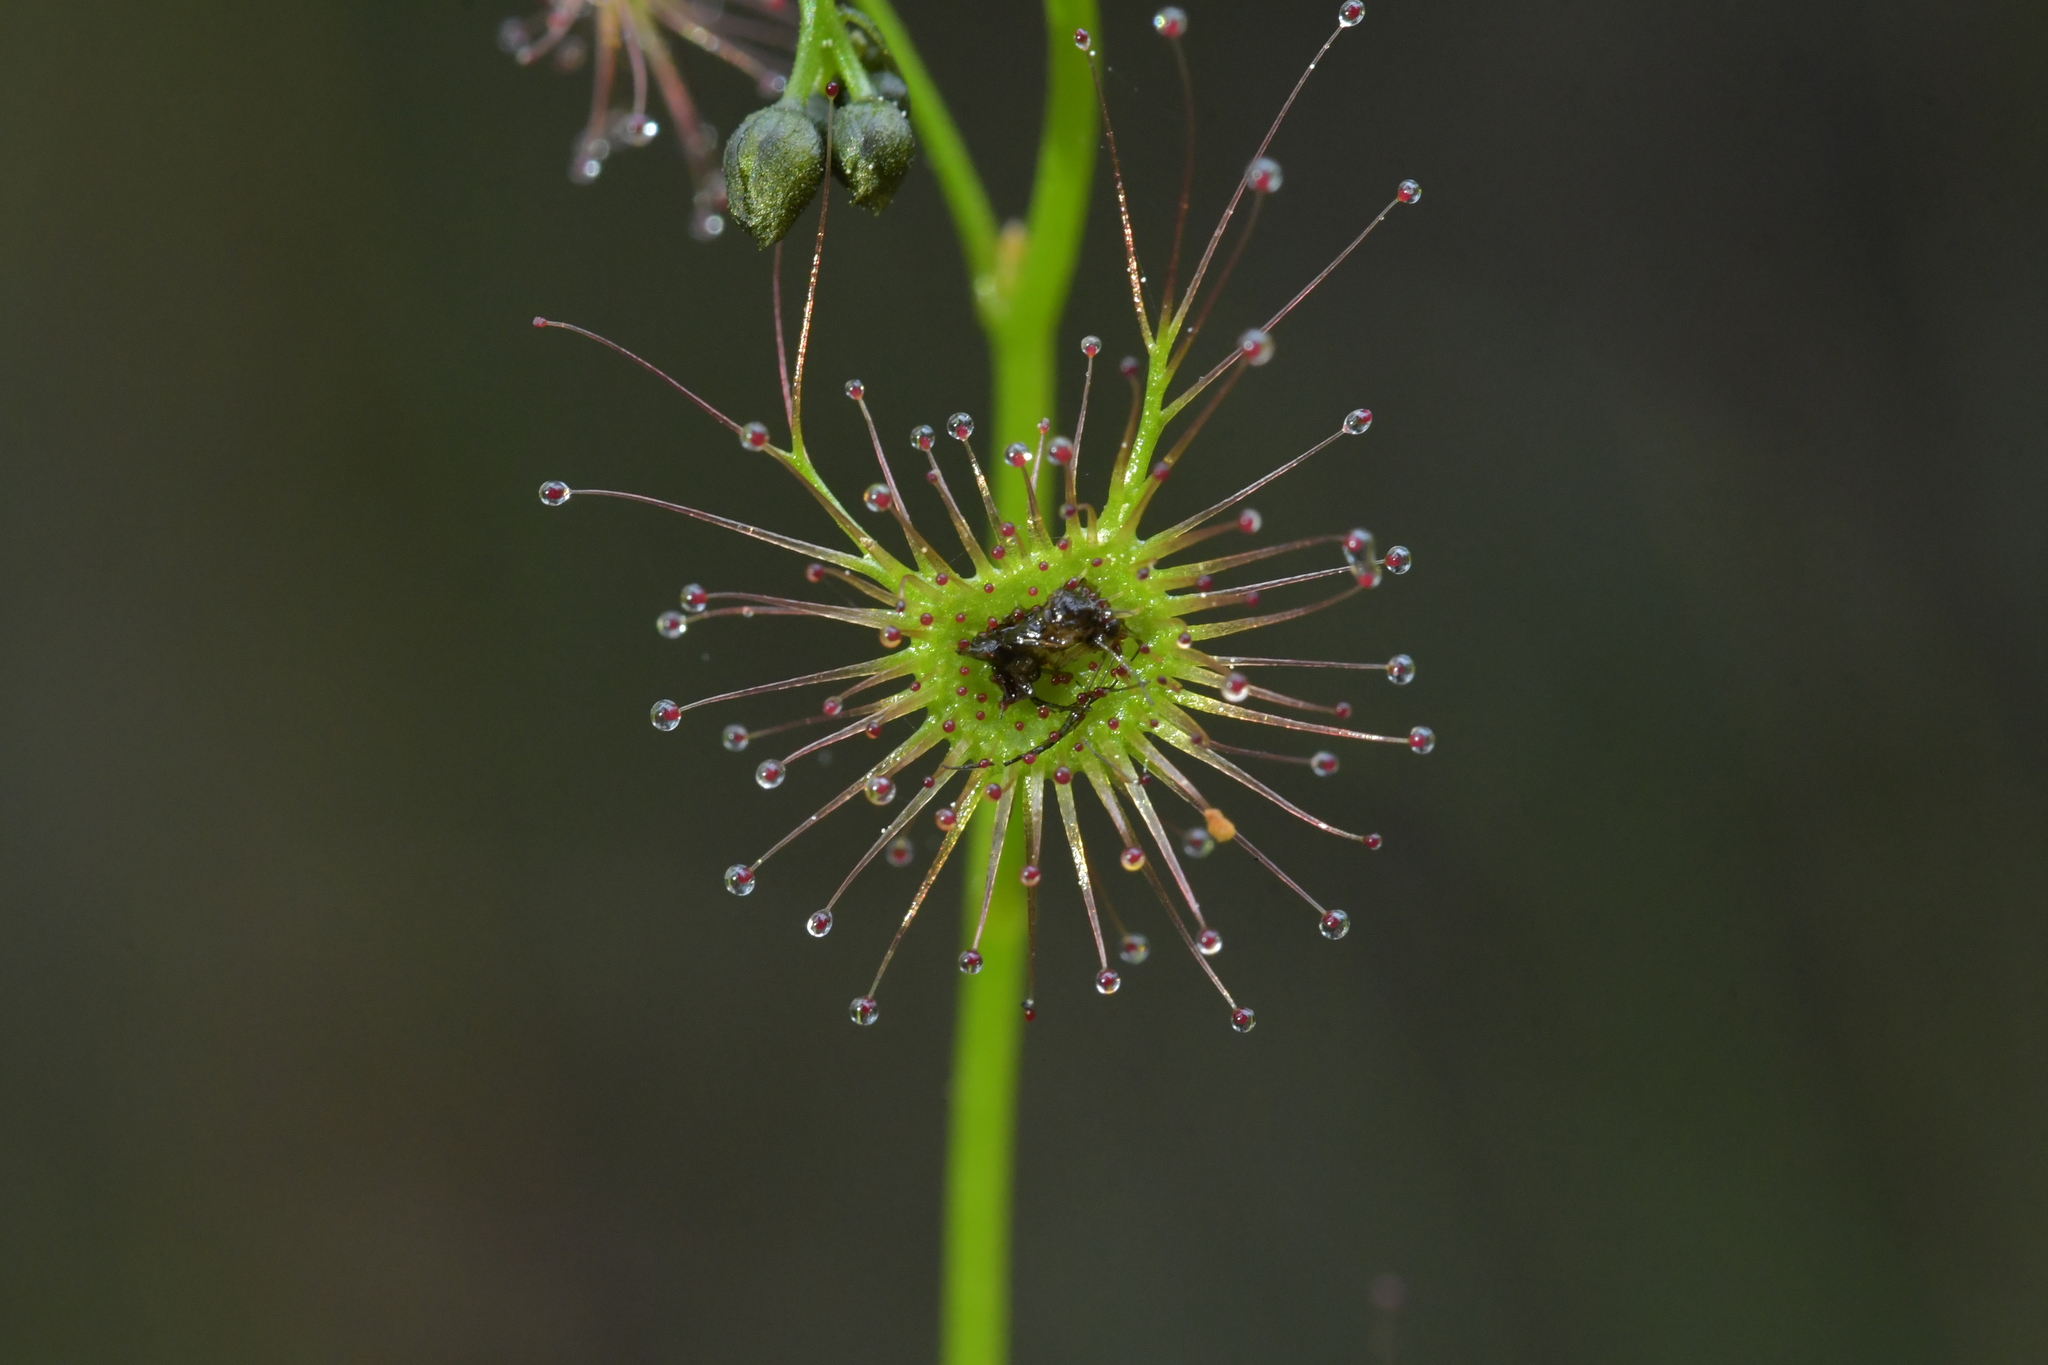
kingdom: Plantae
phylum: Tracheophyta
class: Magnoliopsida
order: Caryophyllales
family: Droseraceae
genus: Drosera
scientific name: Drosera peltata
